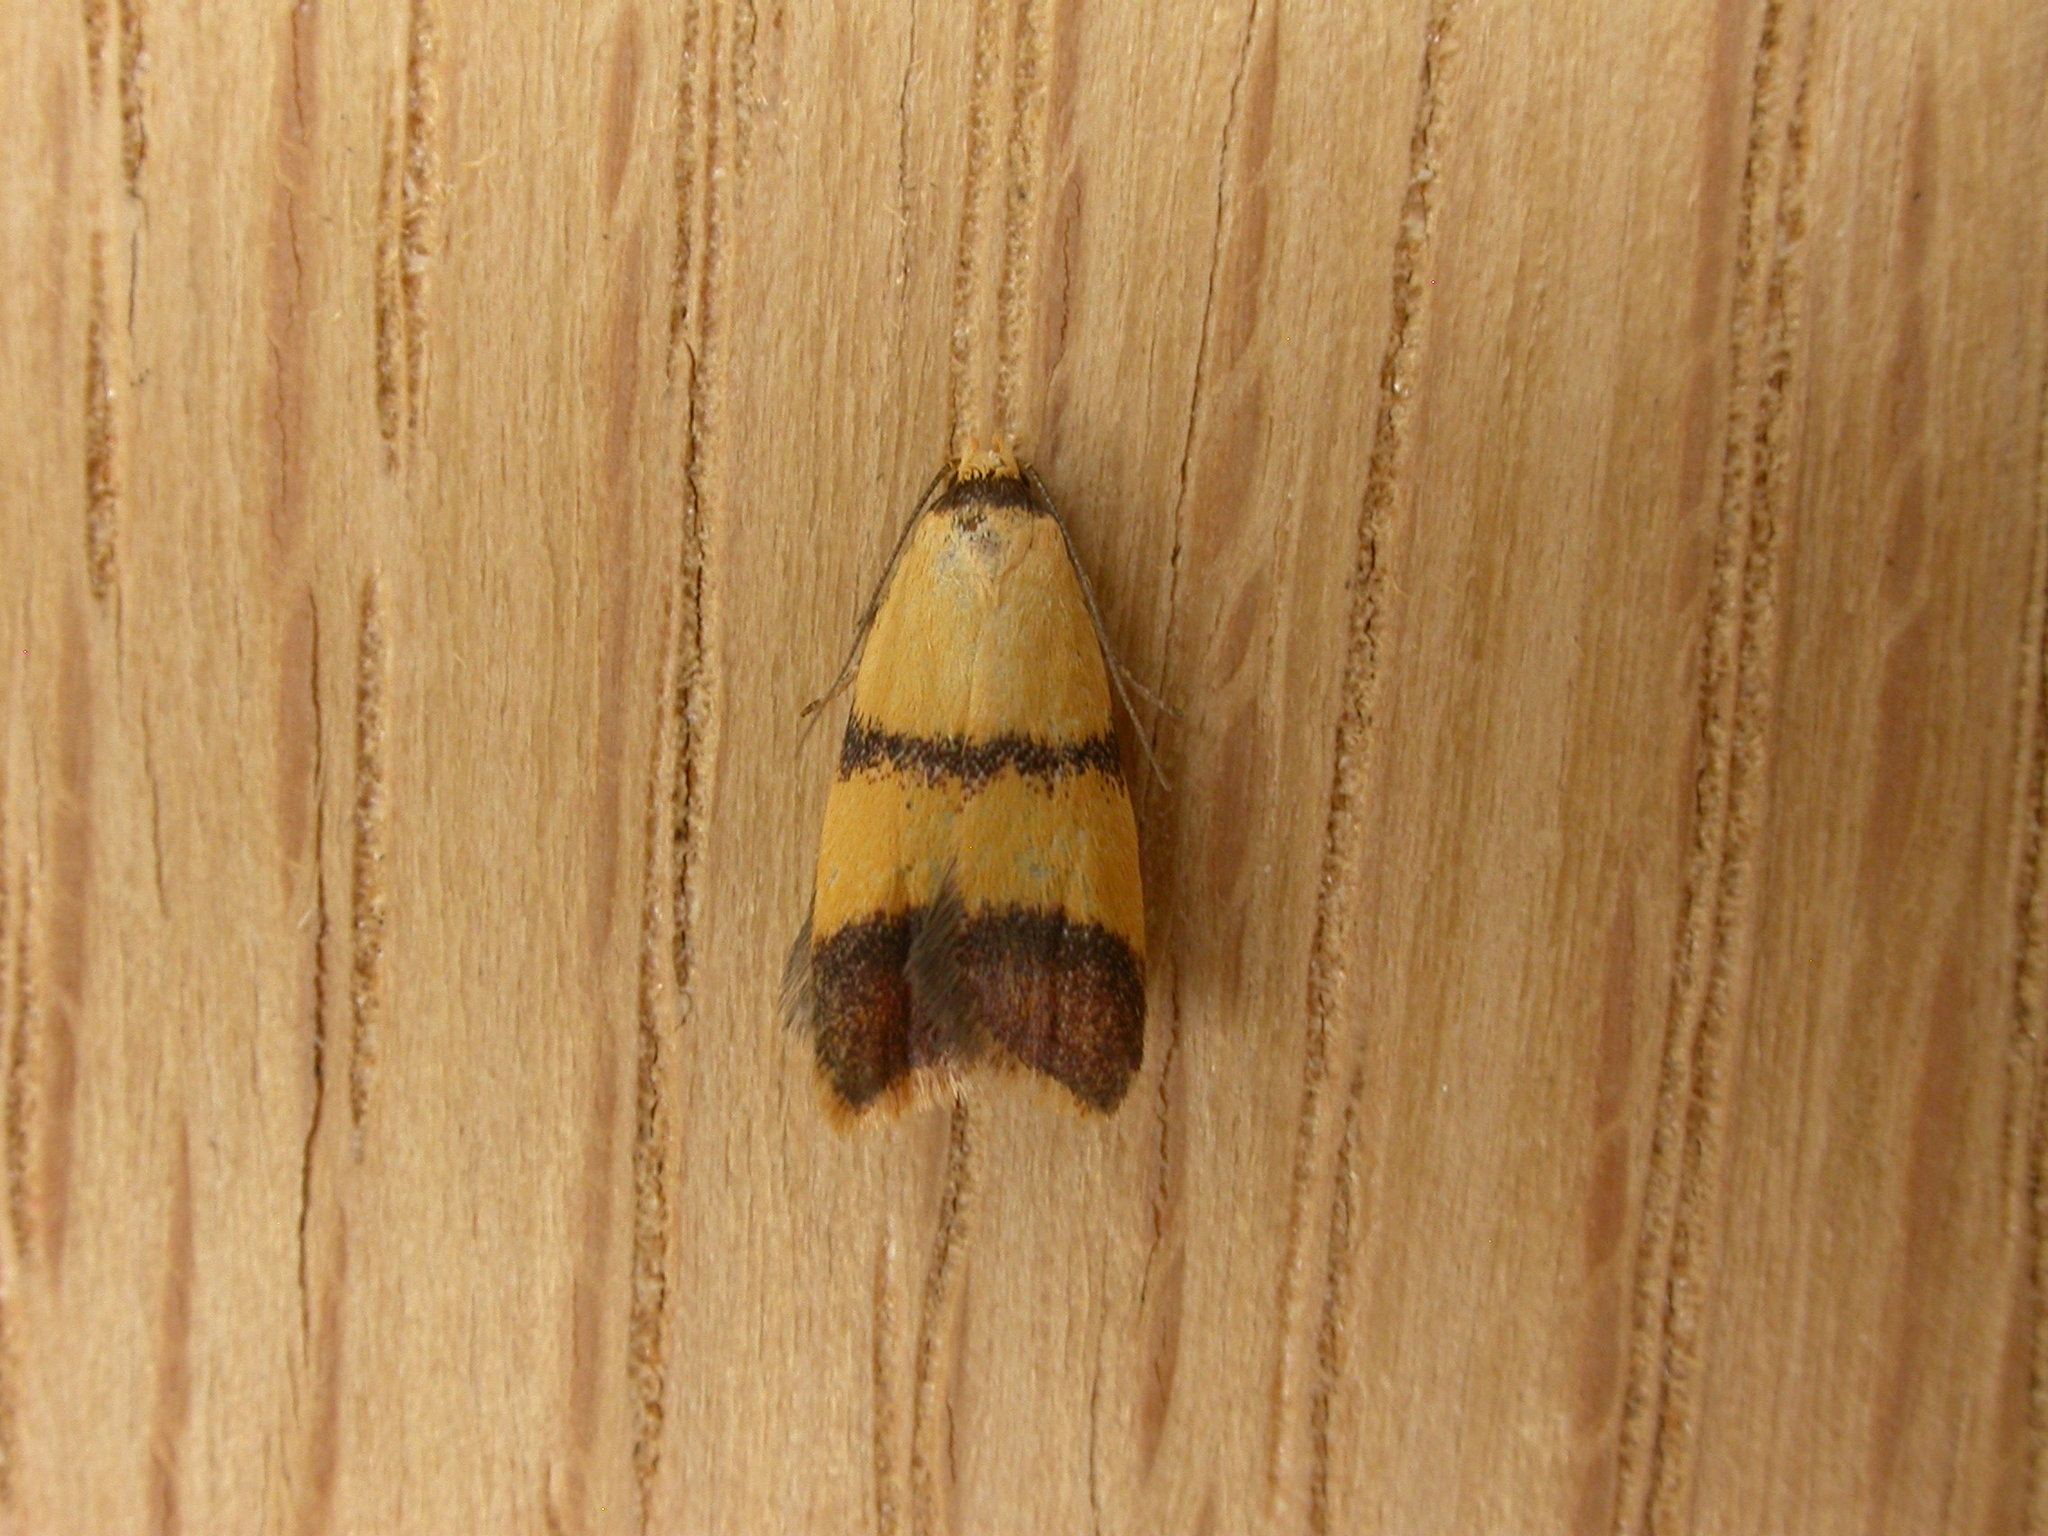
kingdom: Animalia
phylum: Arthropoda
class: Insecta
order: Lepidoptera
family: Oecophoridae
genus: Heteroteucha
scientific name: Heteroteucha translatella
